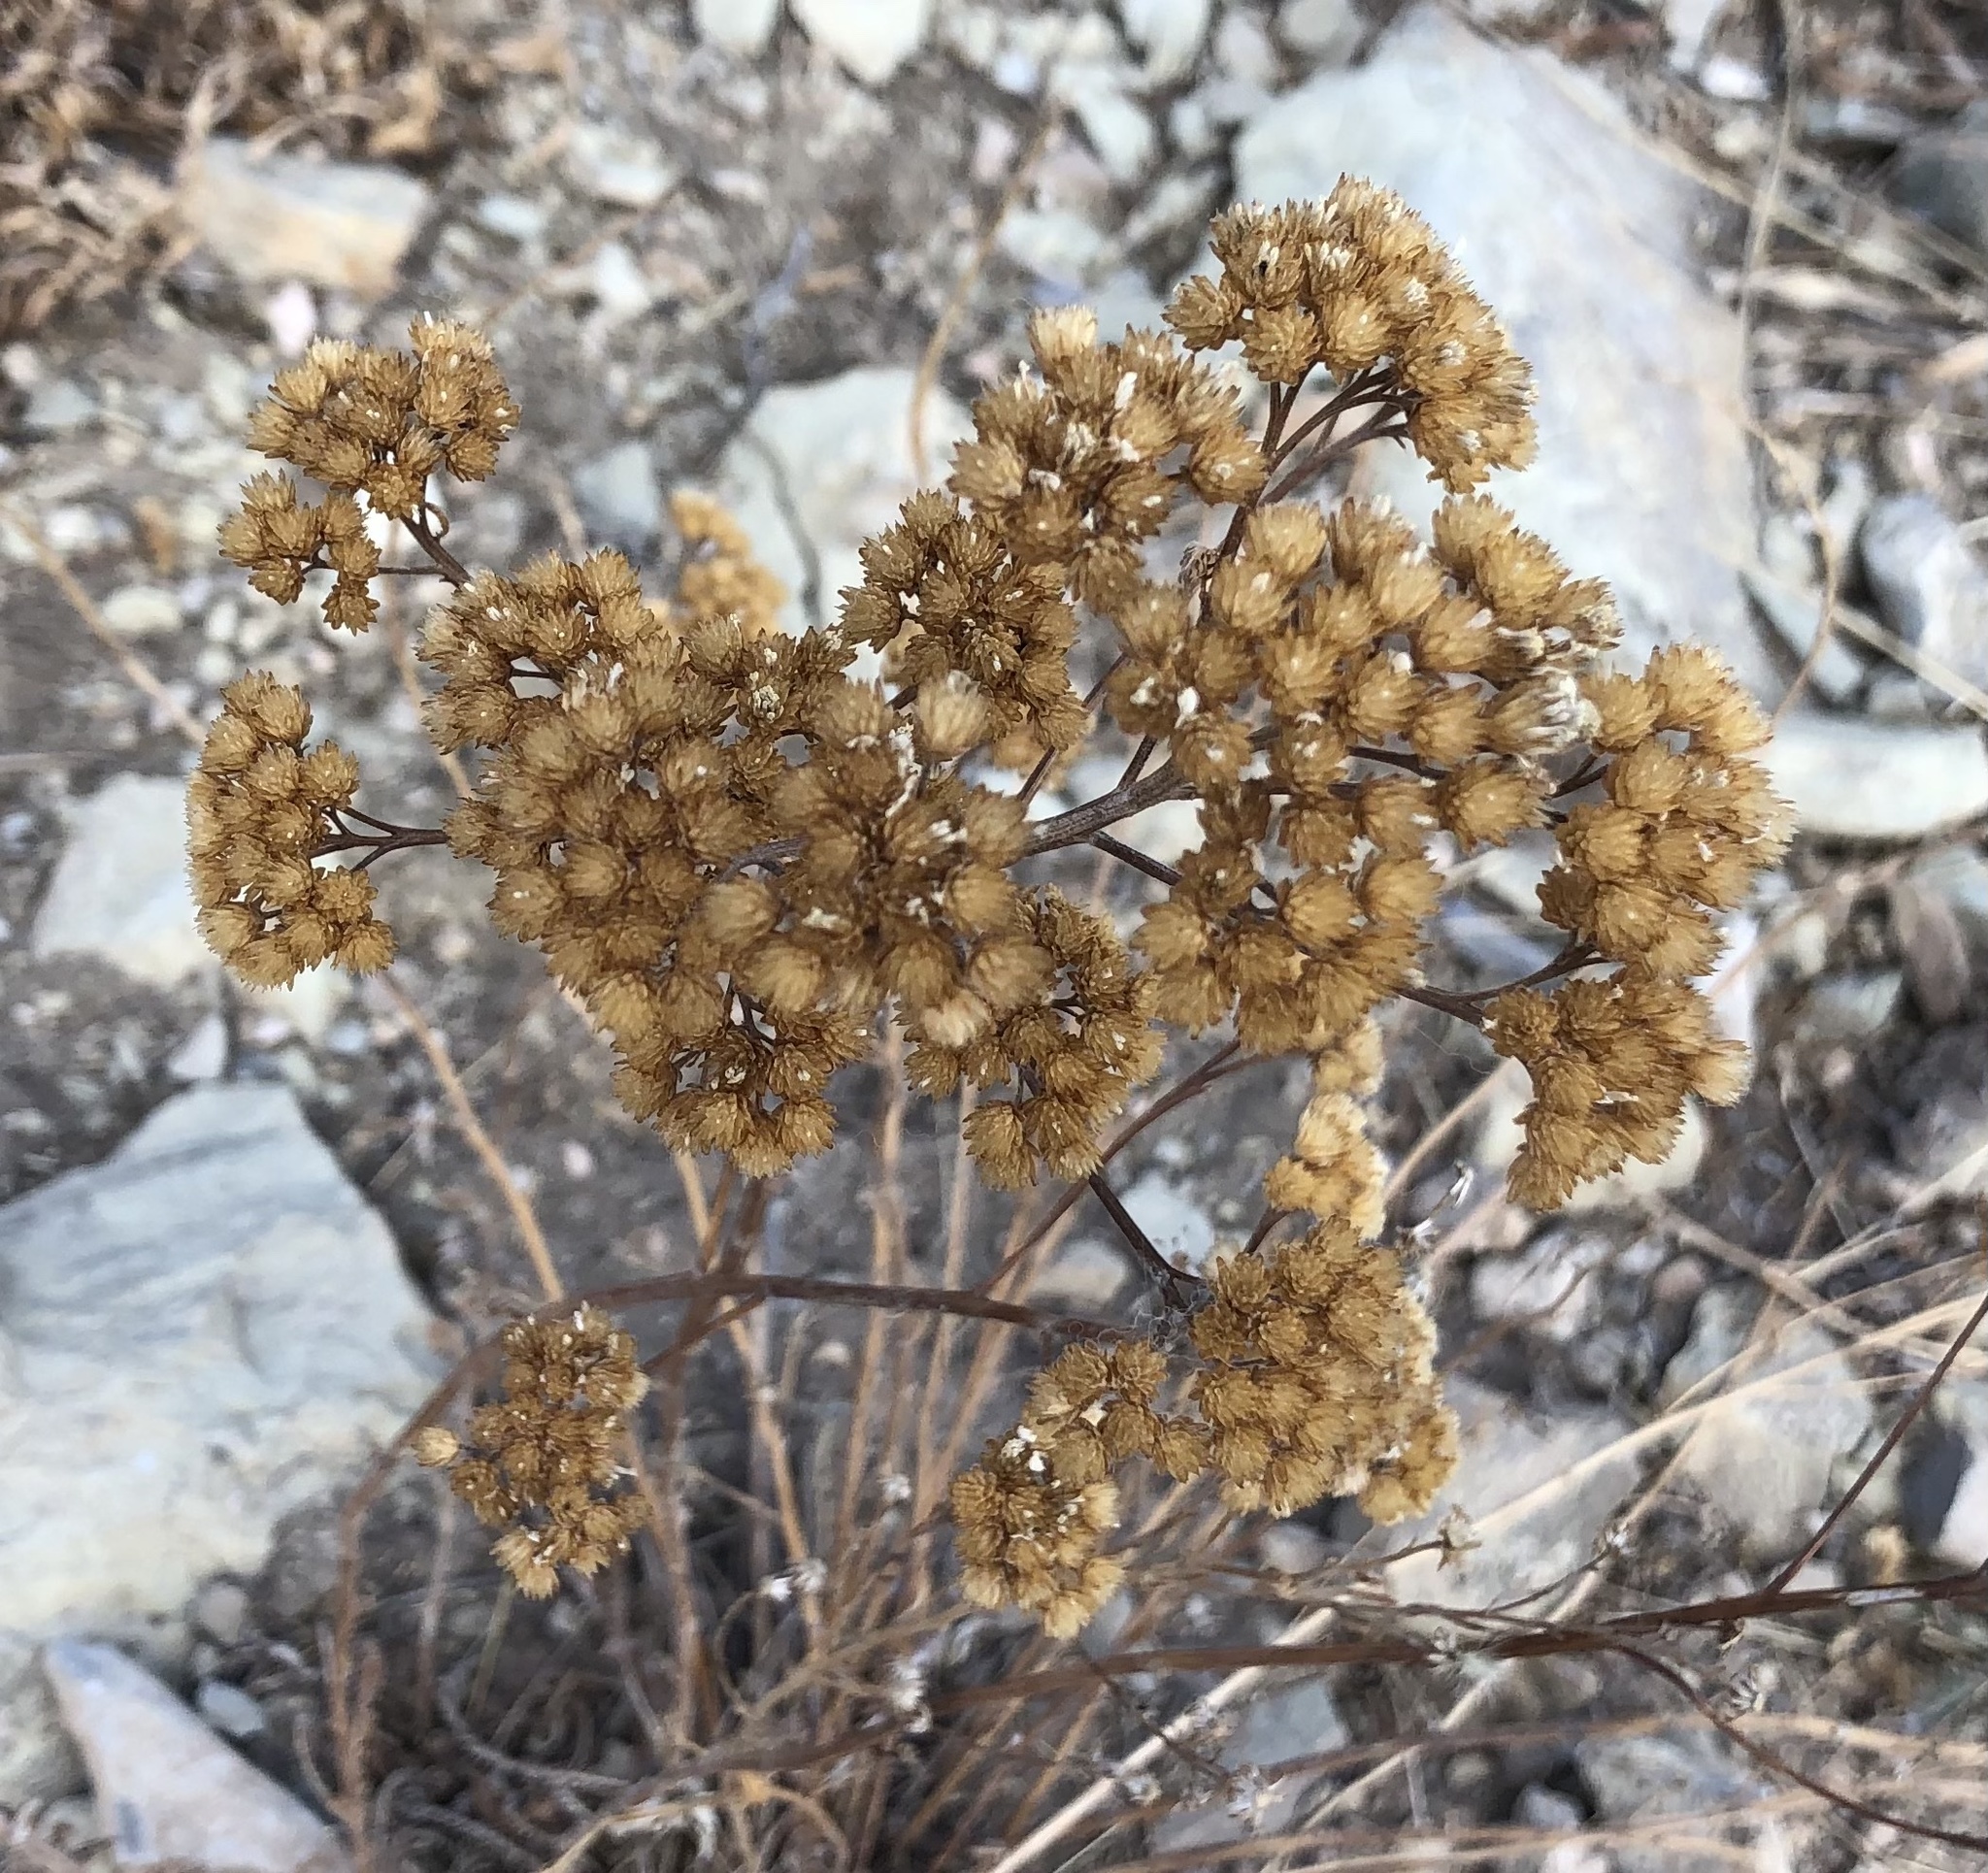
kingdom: Plantae
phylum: Tracheophyta
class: Magnoliopsida
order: Asterales
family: Asteraceae
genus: Achillea
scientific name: Achillea millefolium
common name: Yarrow
